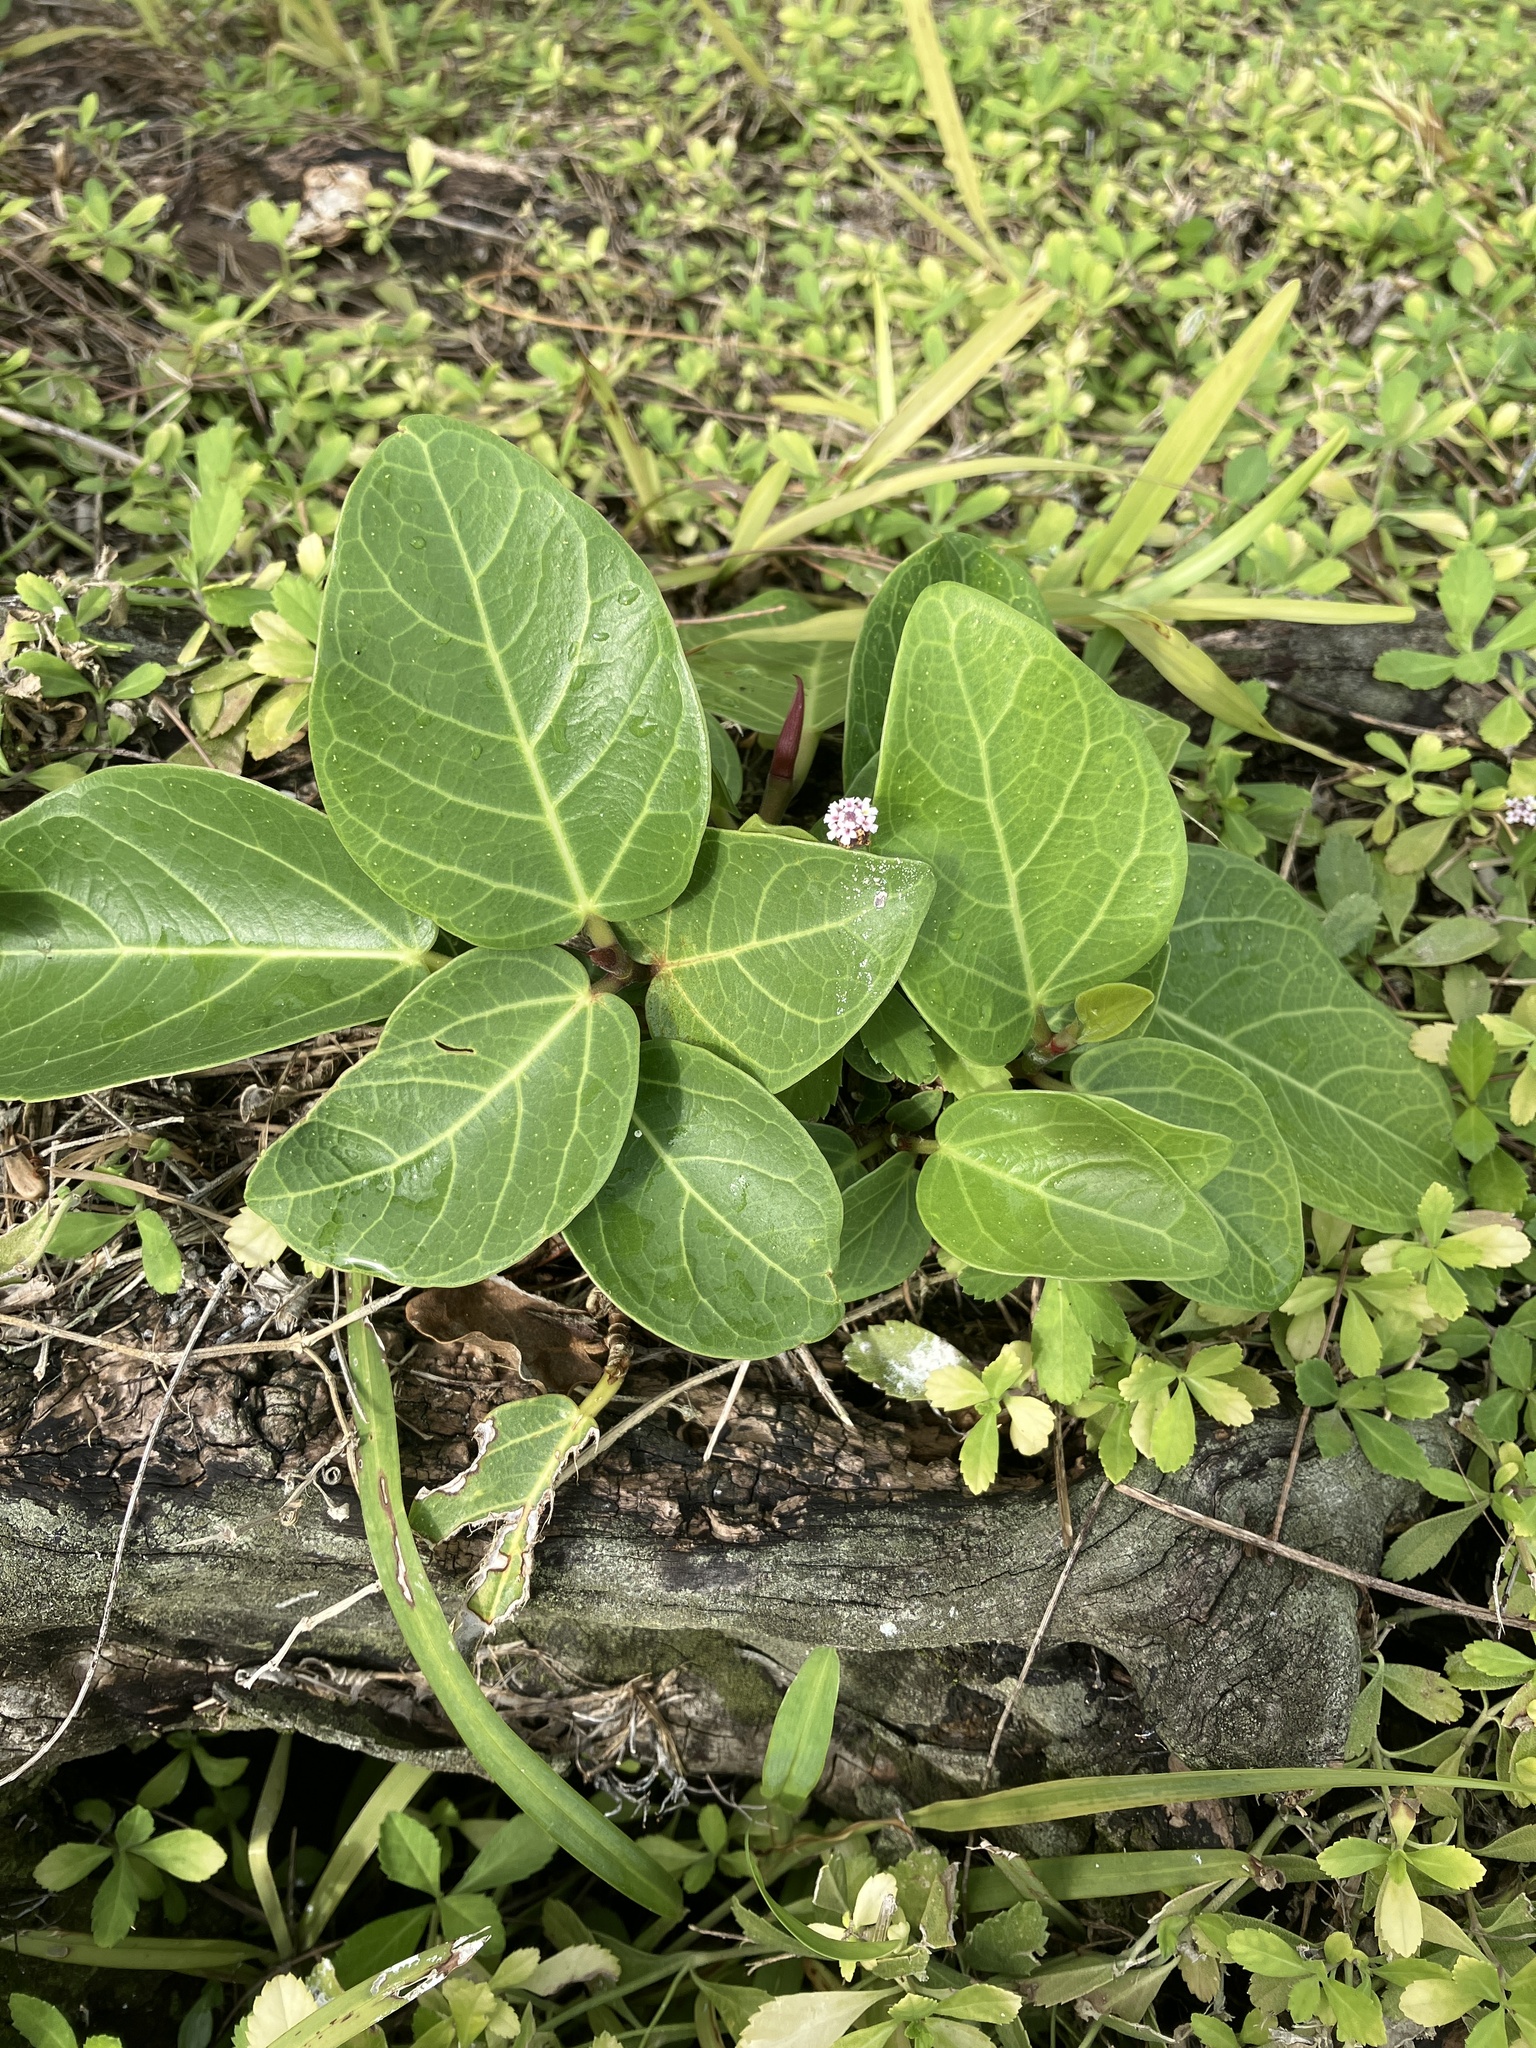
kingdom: Plantae
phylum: Tracheophyta
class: Magnoliopsida
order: Rosales
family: Moraceae
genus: Ficus
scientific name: Ficus benghalensis
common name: Indian banyan
